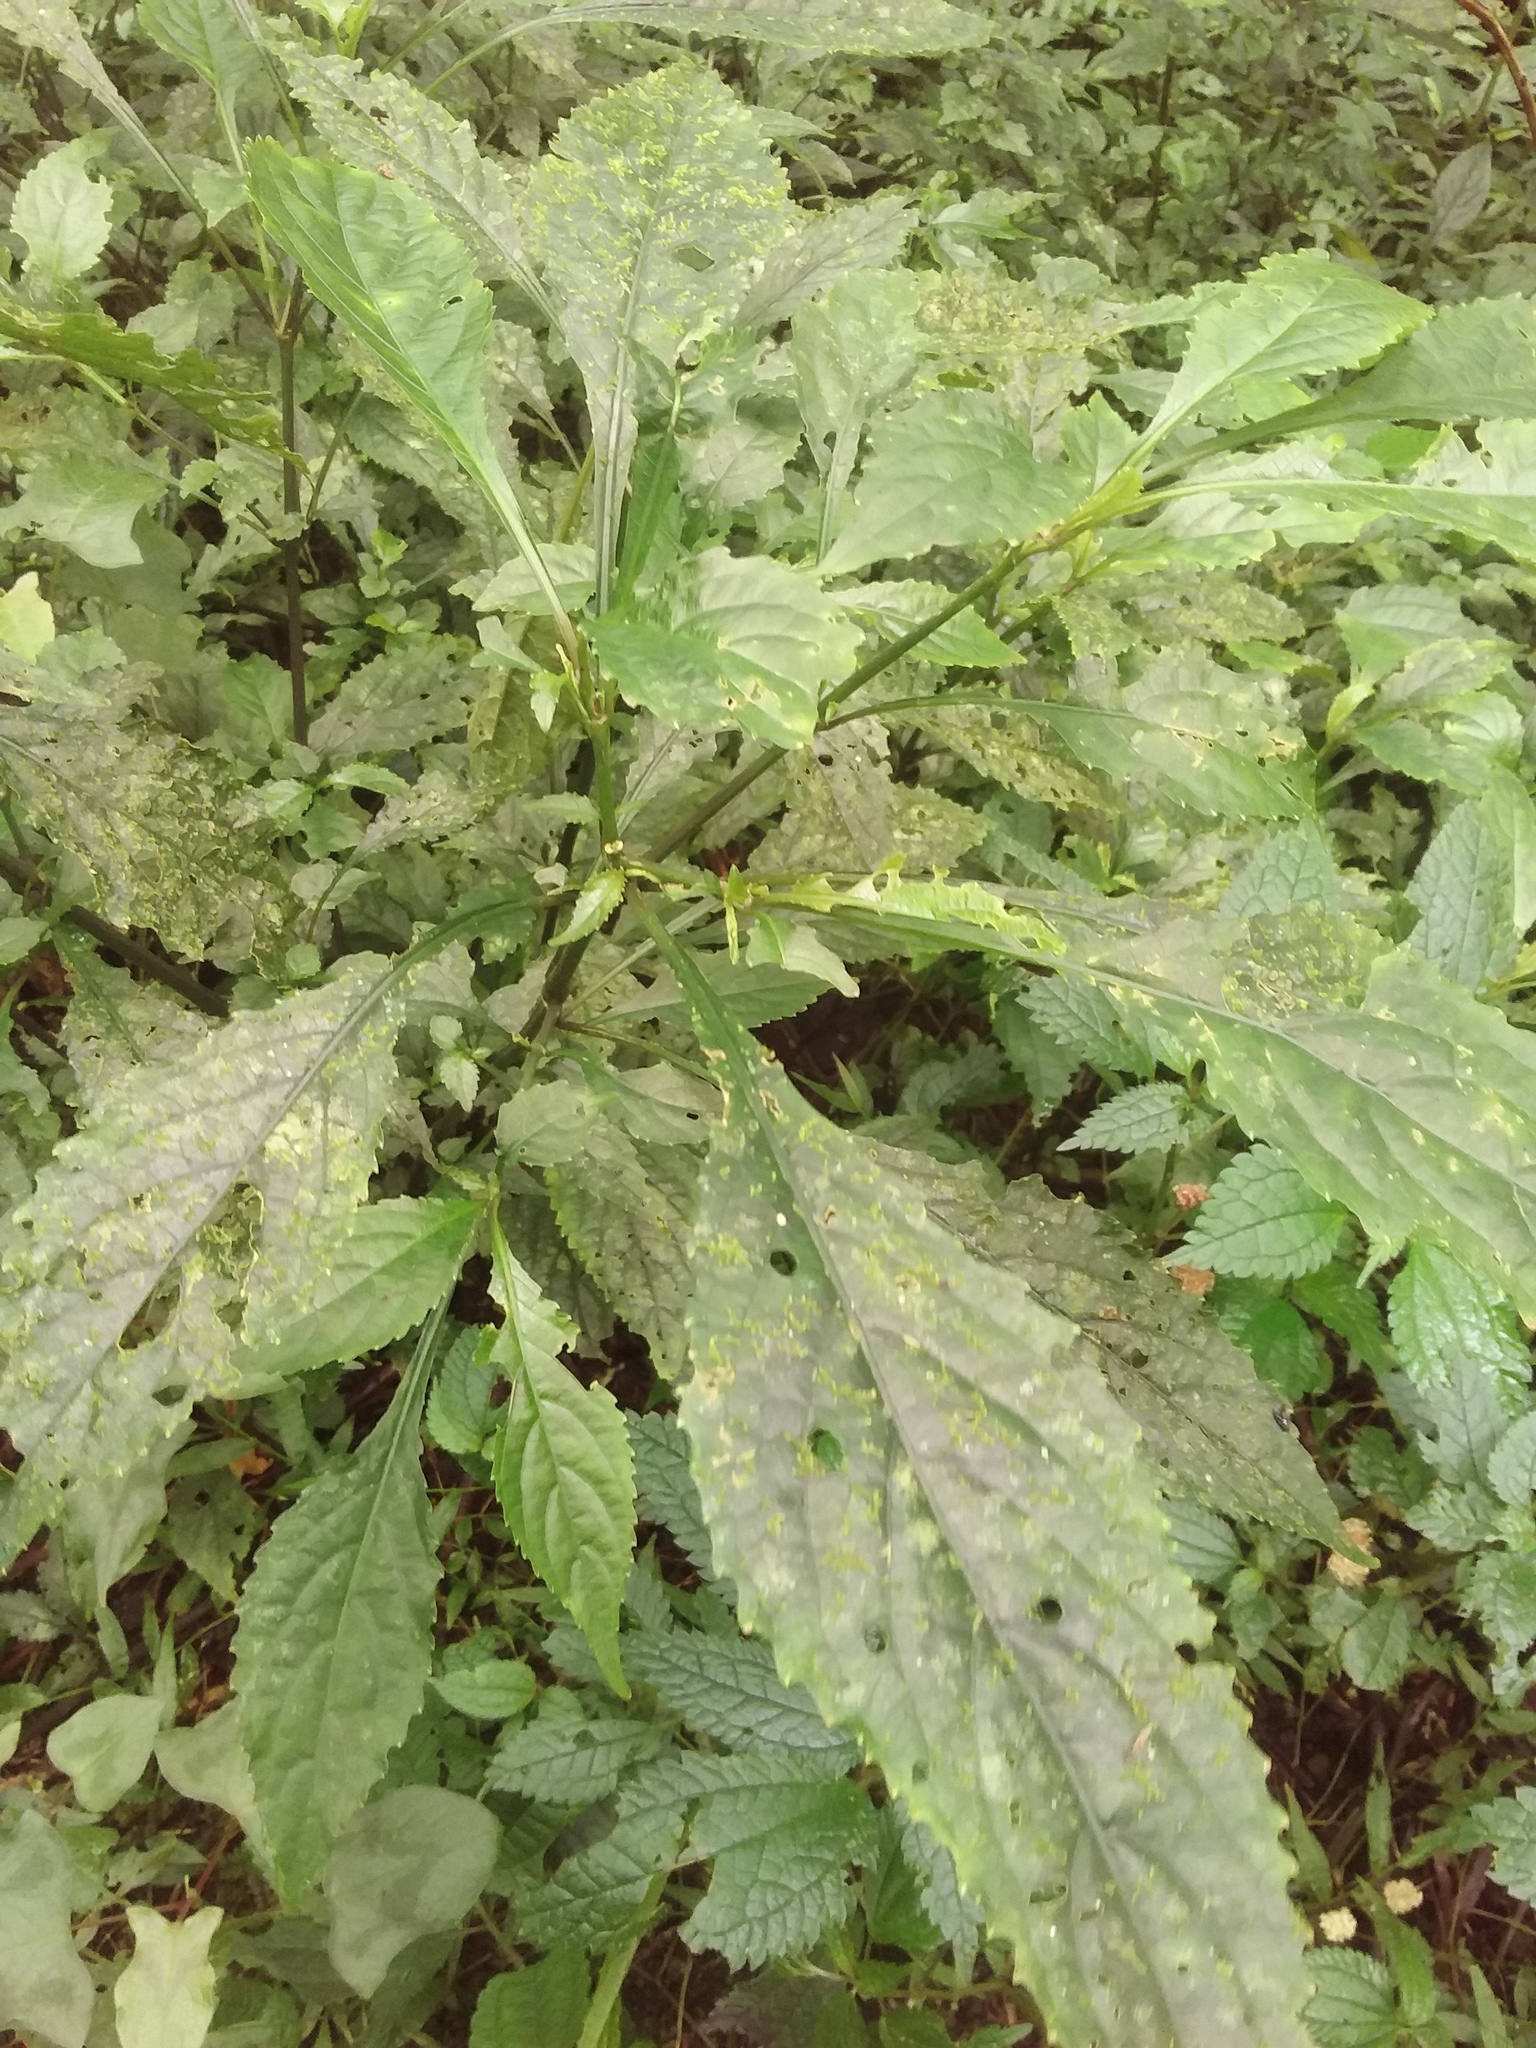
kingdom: Plantae
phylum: Tracheophyta
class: Magnoliopsida
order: Lamiales
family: Acanthaceae
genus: Strobilanthes
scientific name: Strobilanthes flexicaulis
